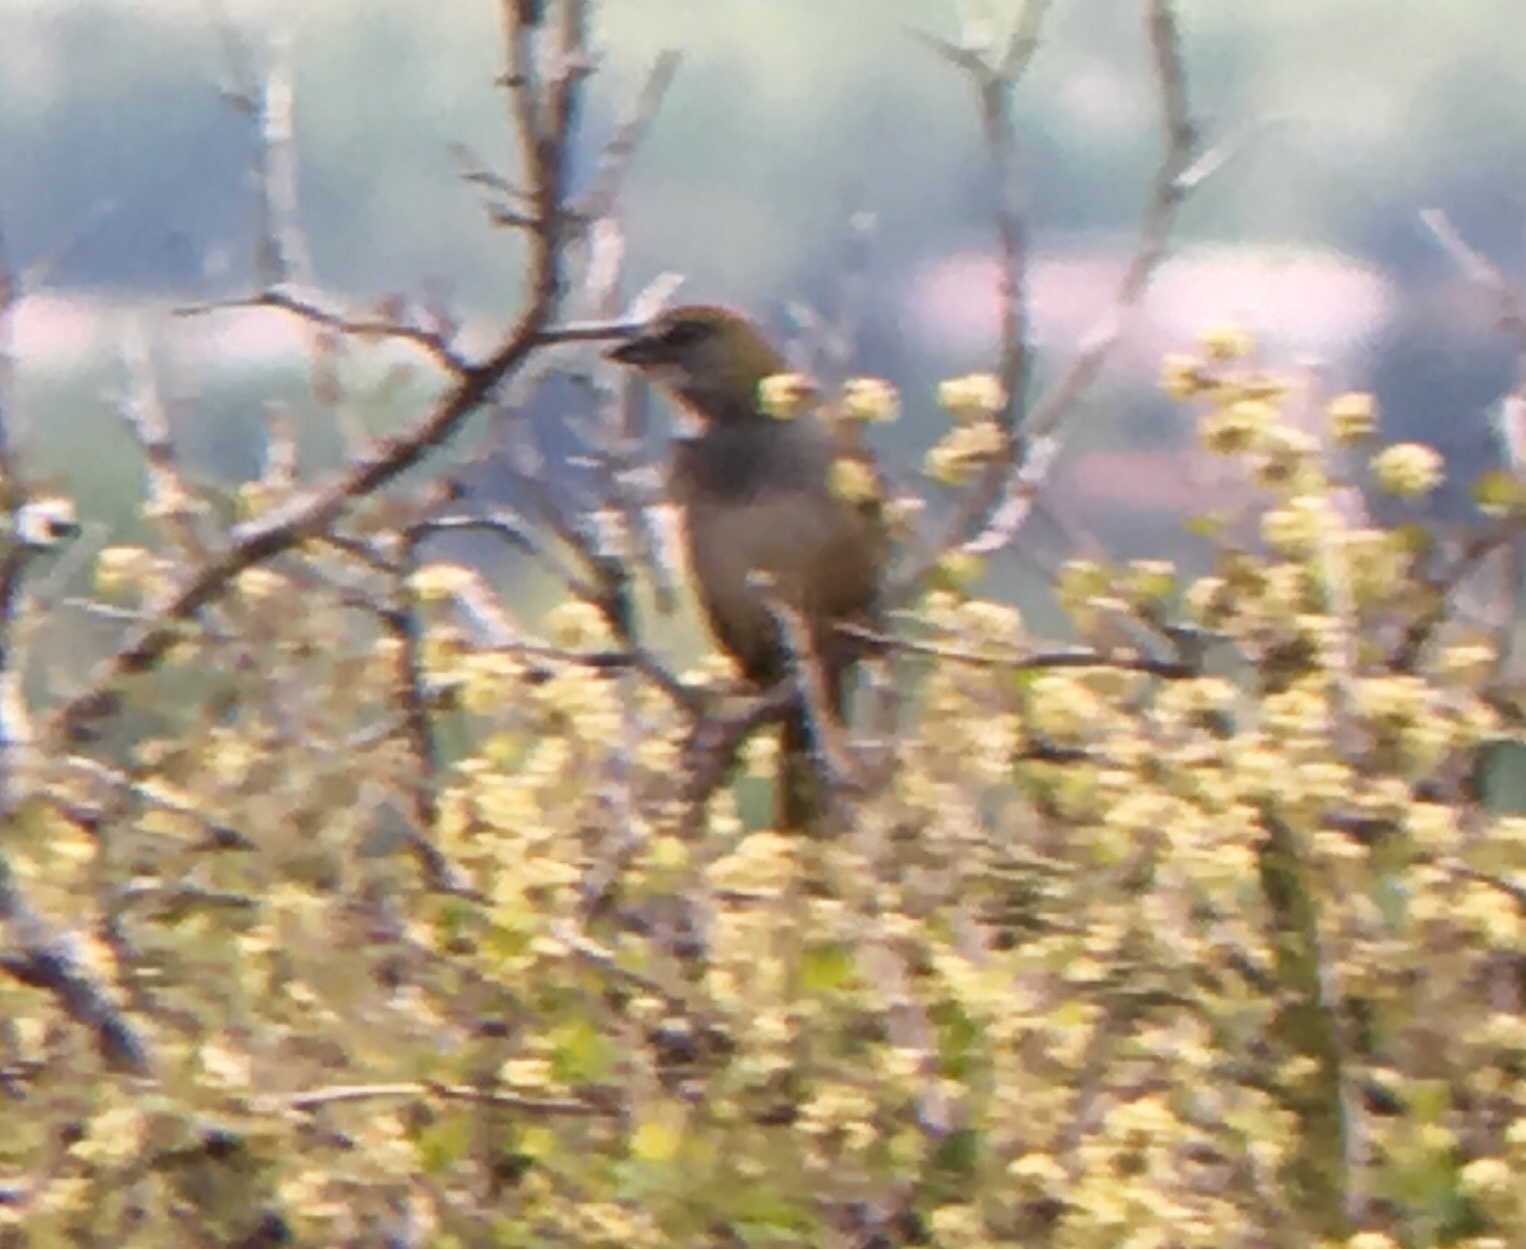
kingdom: Animalia
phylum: Chordata
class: Aves
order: Passeriformes
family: Passerellidae
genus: Pipilo
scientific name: Pipilo chlorurus
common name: Green-tailed towhee
